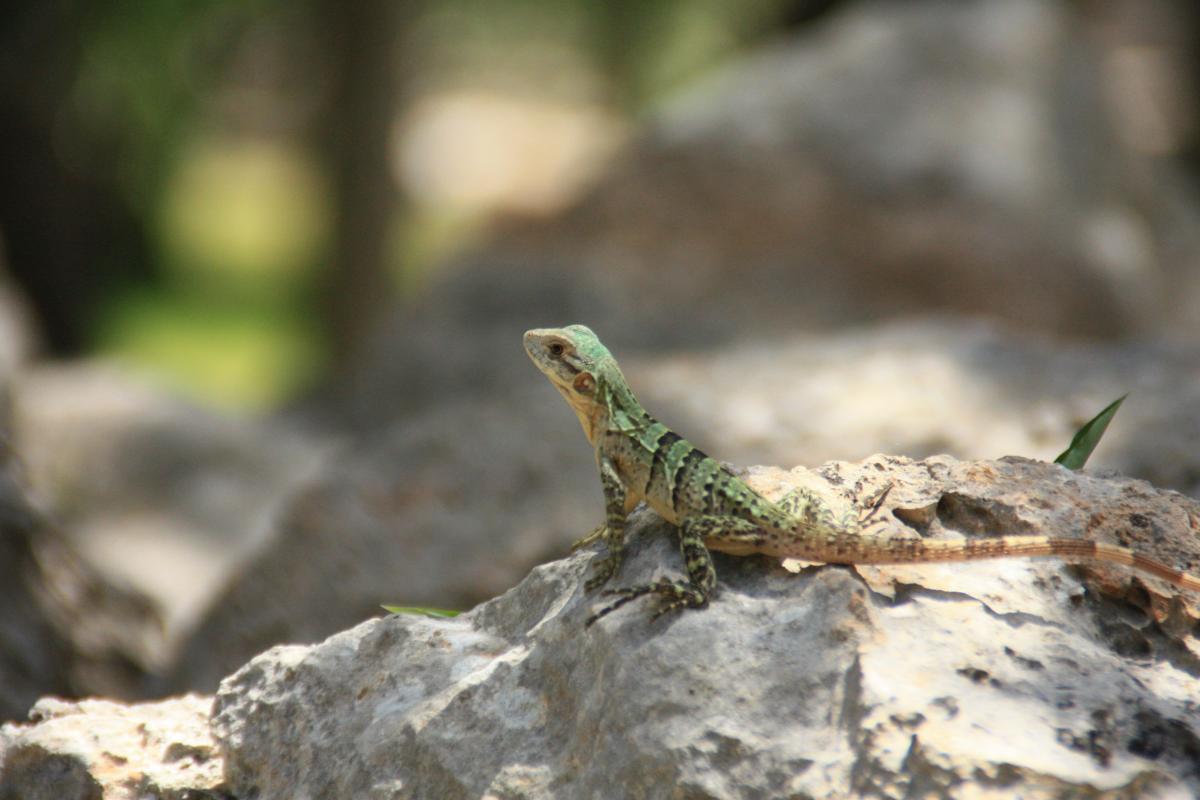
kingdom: Animalia
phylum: Chordata
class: Squamata
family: Iguanidae
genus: Ctenosaura
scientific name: Ctenosaura similis
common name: Black spiny-tailed iguana
